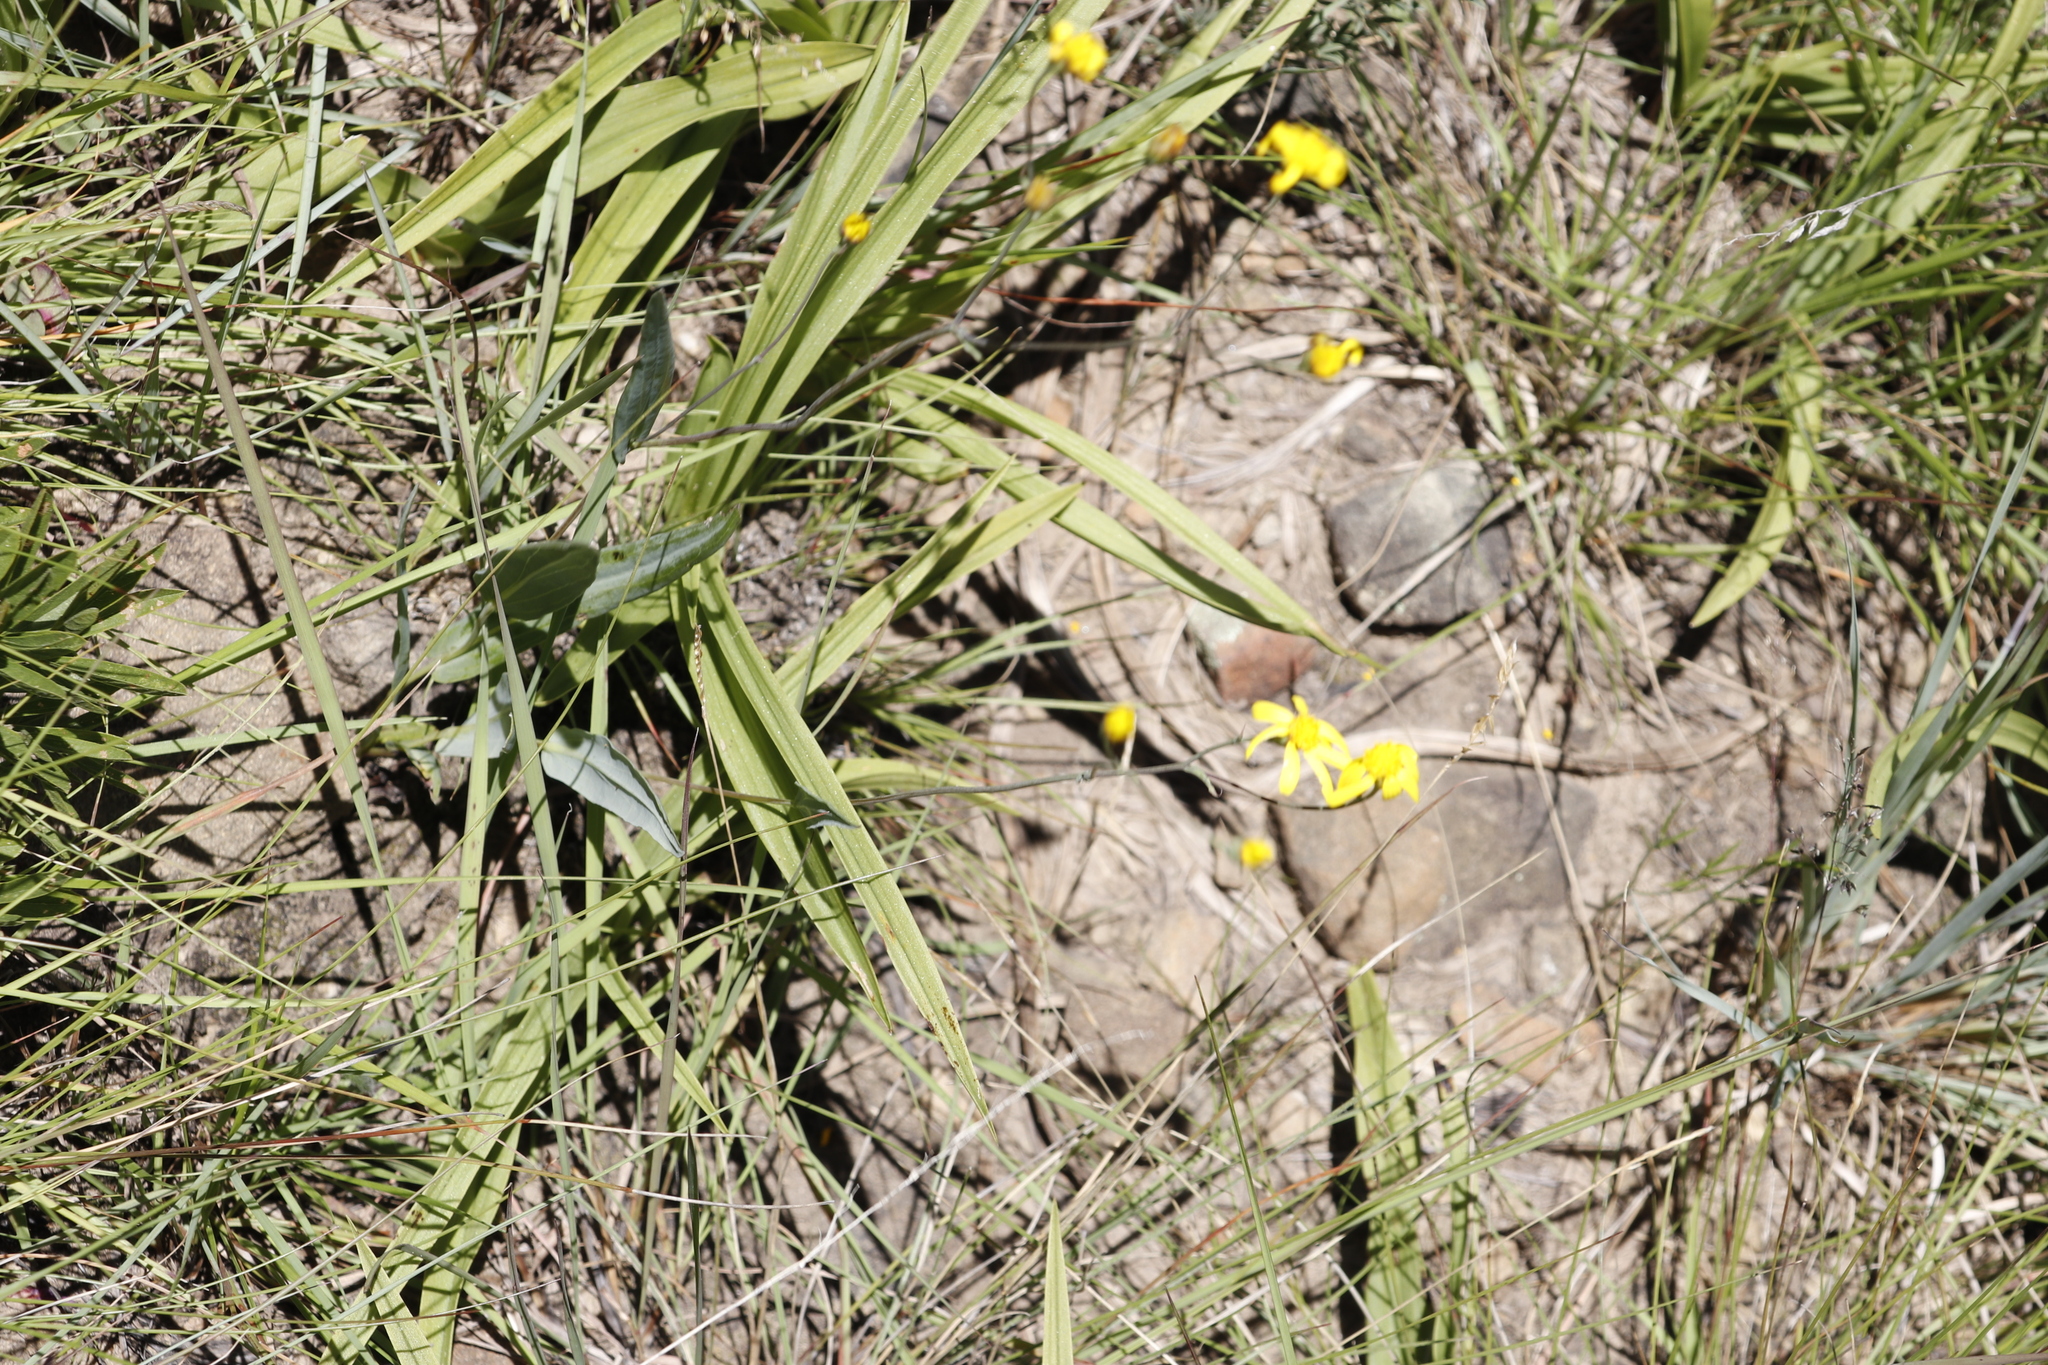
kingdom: Plantae
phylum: Tracheophyta
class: Magnoliopsida
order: Asterales
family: Asteraceae
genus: Senecio
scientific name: Senecio glaberrimus
